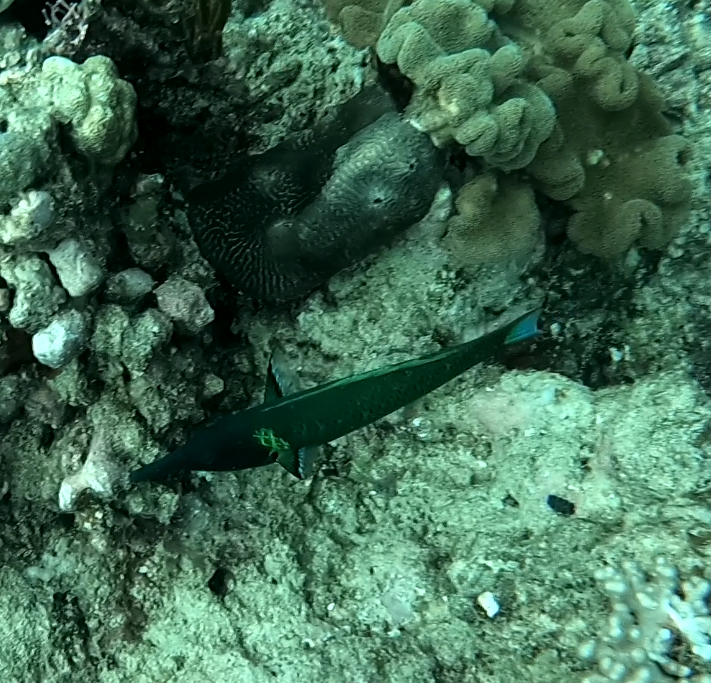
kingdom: Animalia
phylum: Chordata
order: Perciformes
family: Labridae
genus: Gomphosus
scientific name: Gomphosus varius
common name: Bird wrasse
